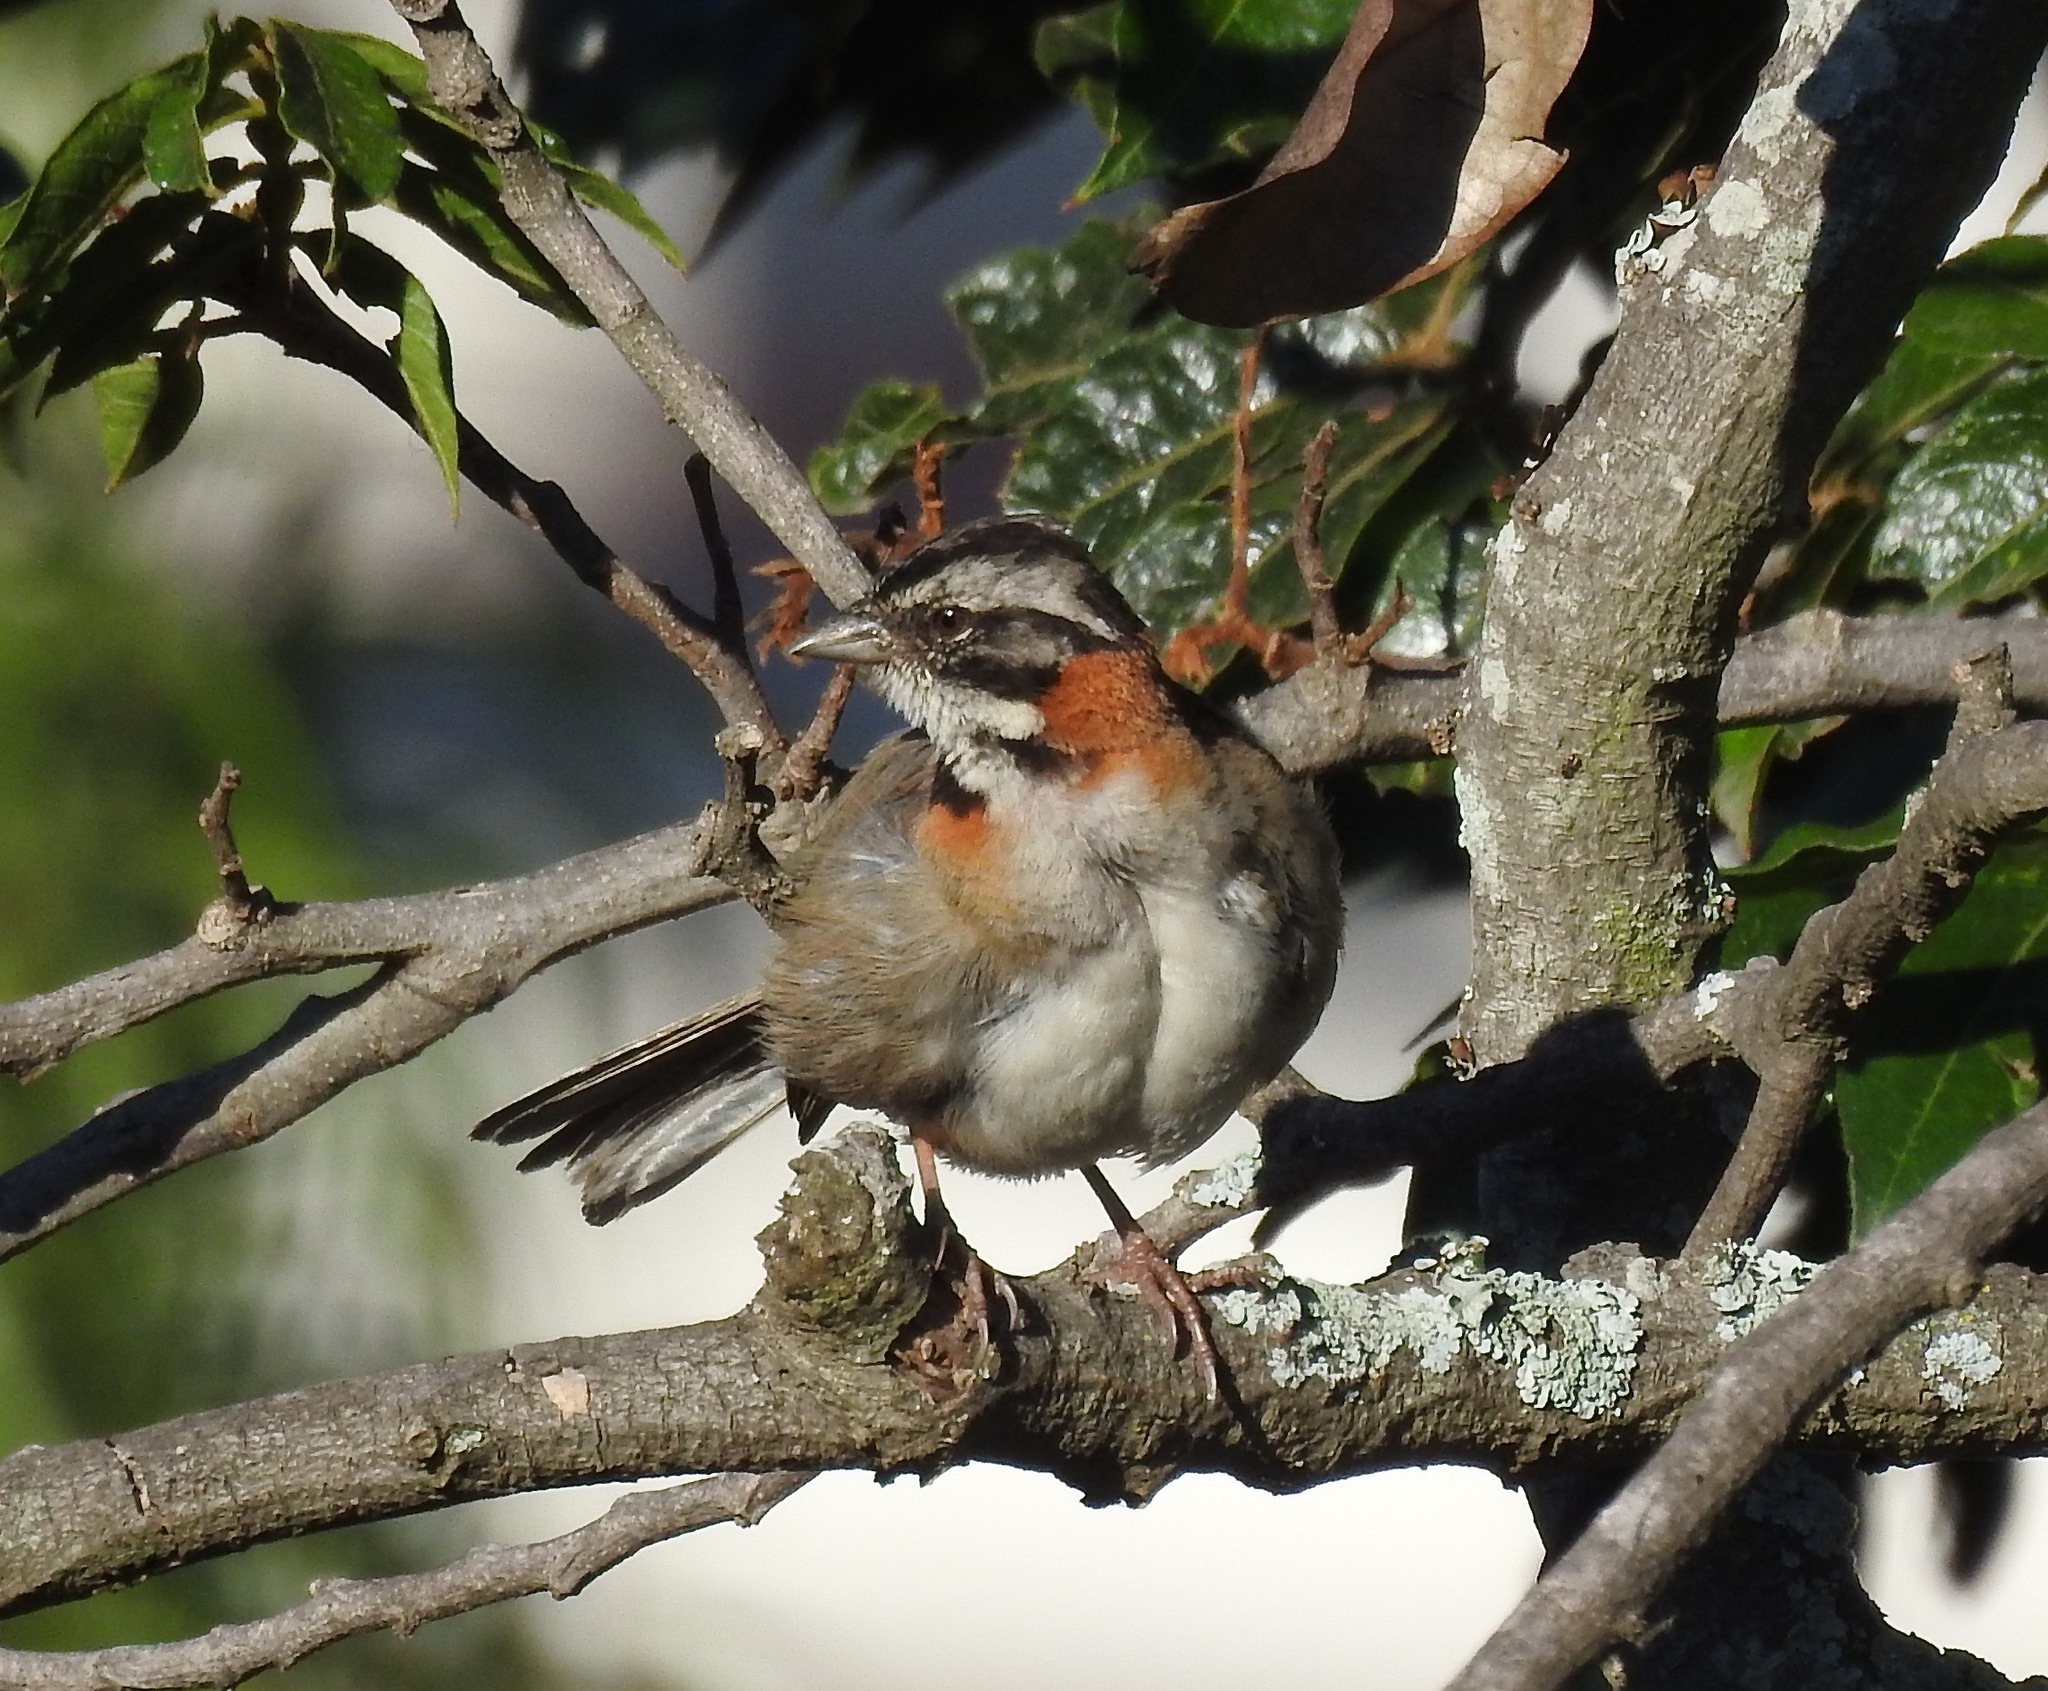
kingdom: Animalia
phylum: Chordata
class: Aves
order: Passeriformes
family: Passerellidae
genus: Zonotrichia
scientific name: Zonotrichia capensis
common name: Rufous-collared sparrow
